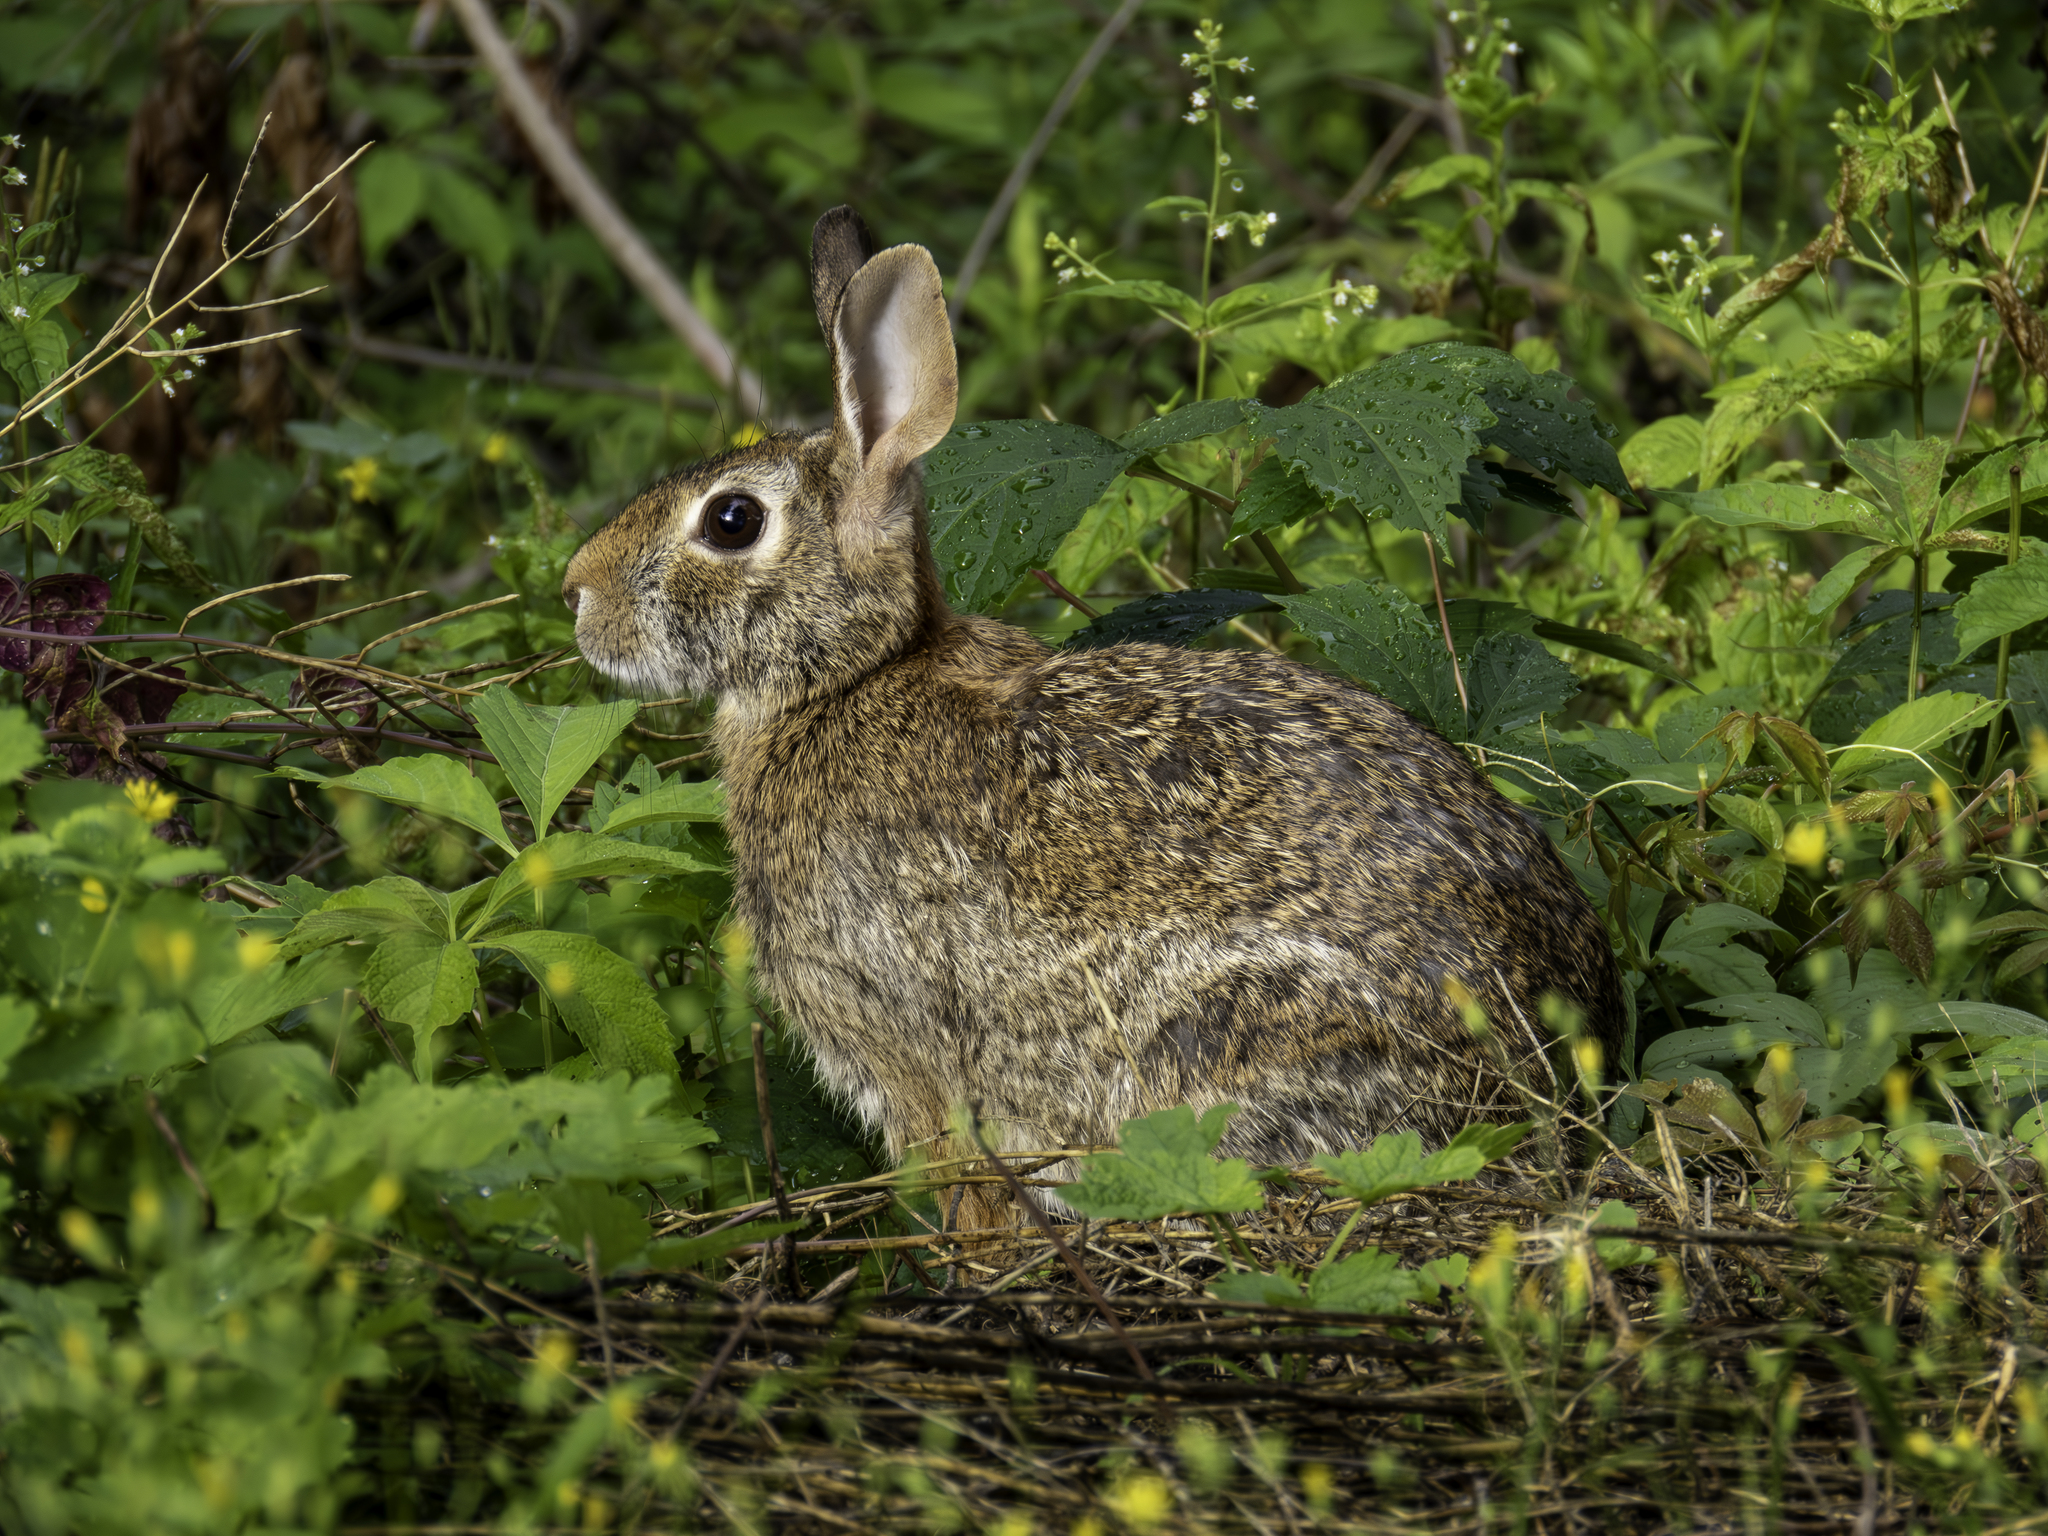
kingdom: Animalia
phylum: Chordata
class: Mammalia
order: Lagomorpha
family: Leporidae
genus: Sylvilagus
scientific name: Sylvilagus floridanus
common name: Eastern cottontail
